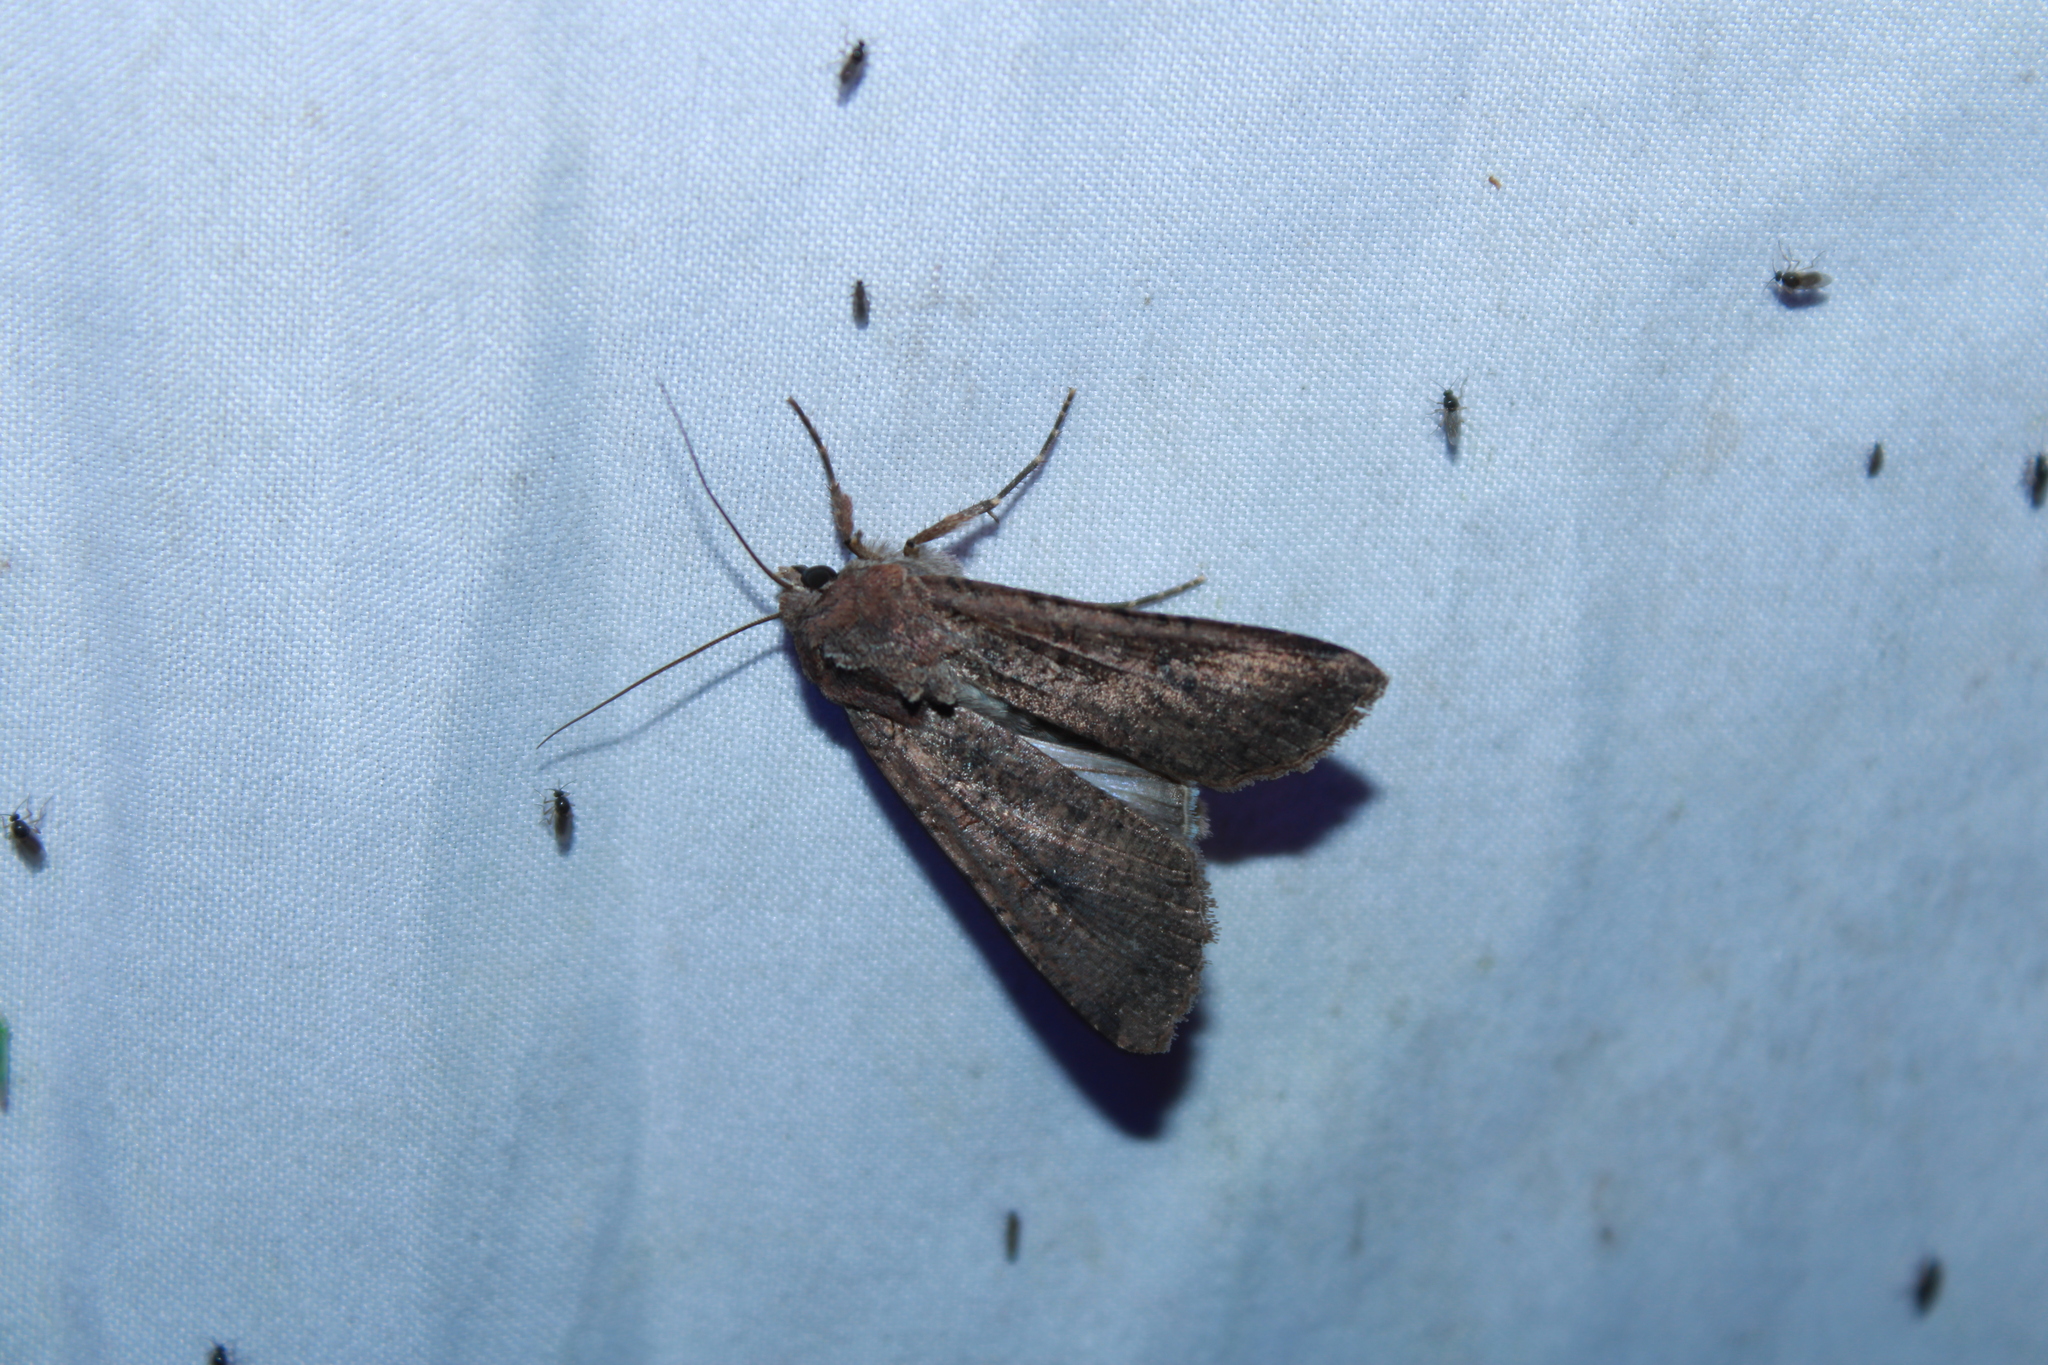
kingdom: Animalia
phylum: Arthropoda
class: Insecta
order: Lepidoptera
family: Noctuidae
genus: Peridroma
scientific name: Peridroma saucia
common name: Pearly underwing
